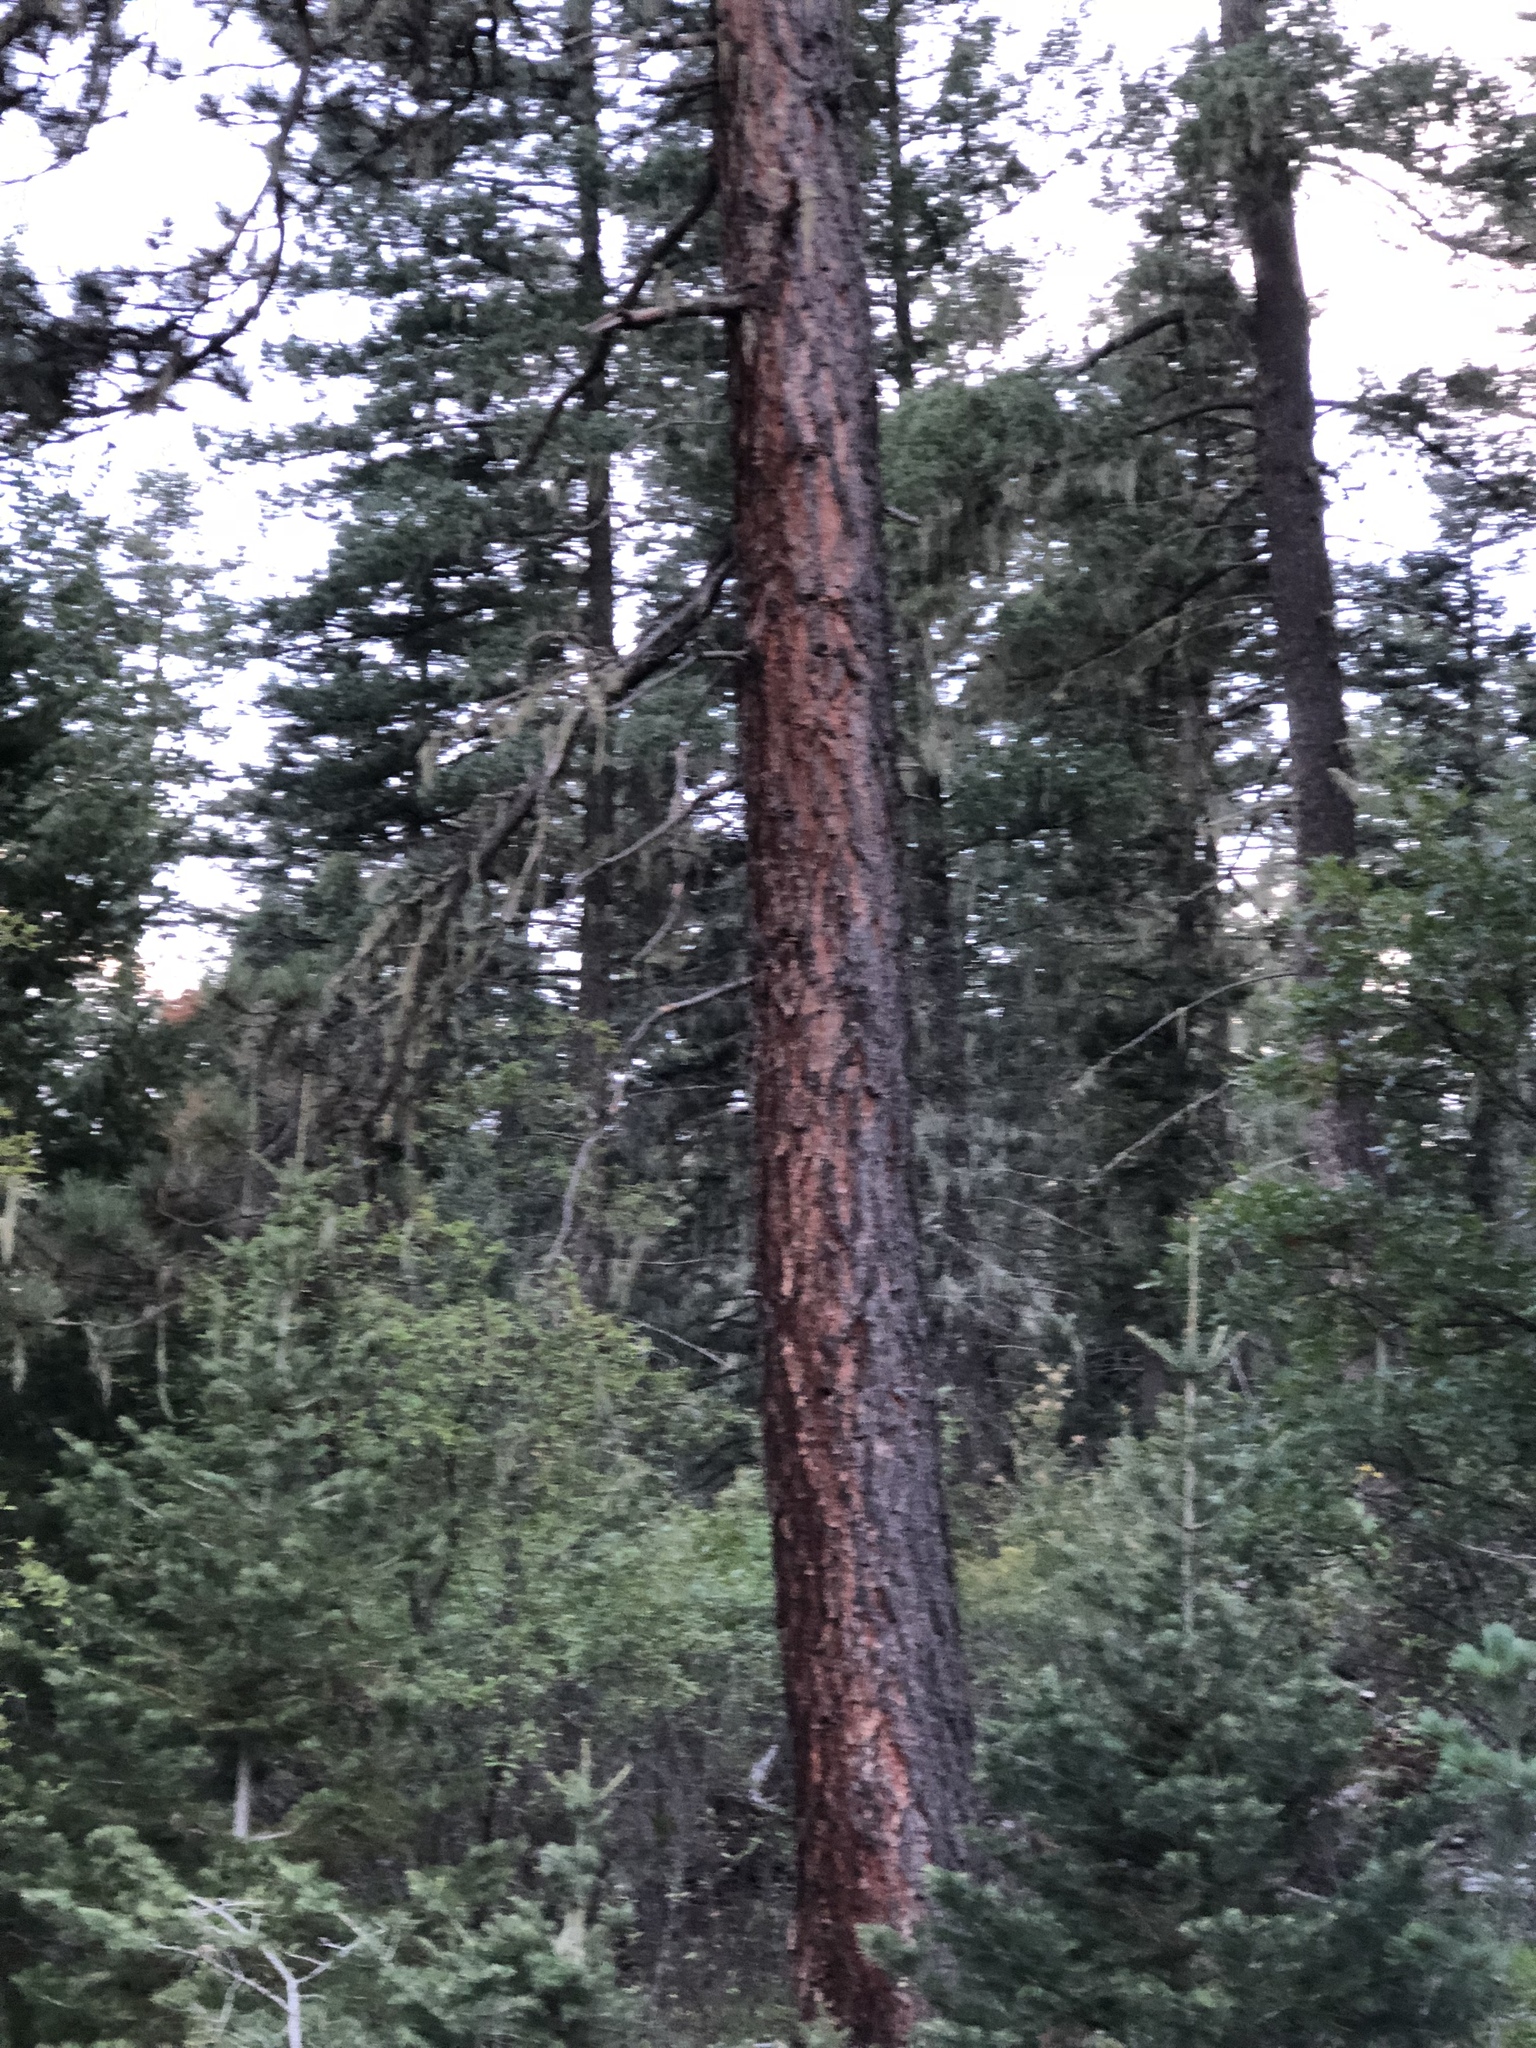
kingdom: Plantae
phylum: Tracheophyta
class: Pinopsida
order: Pinales
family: Pinaceae
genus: Pinus
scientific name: Pinus ponderosa
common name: Western yellow-pine
